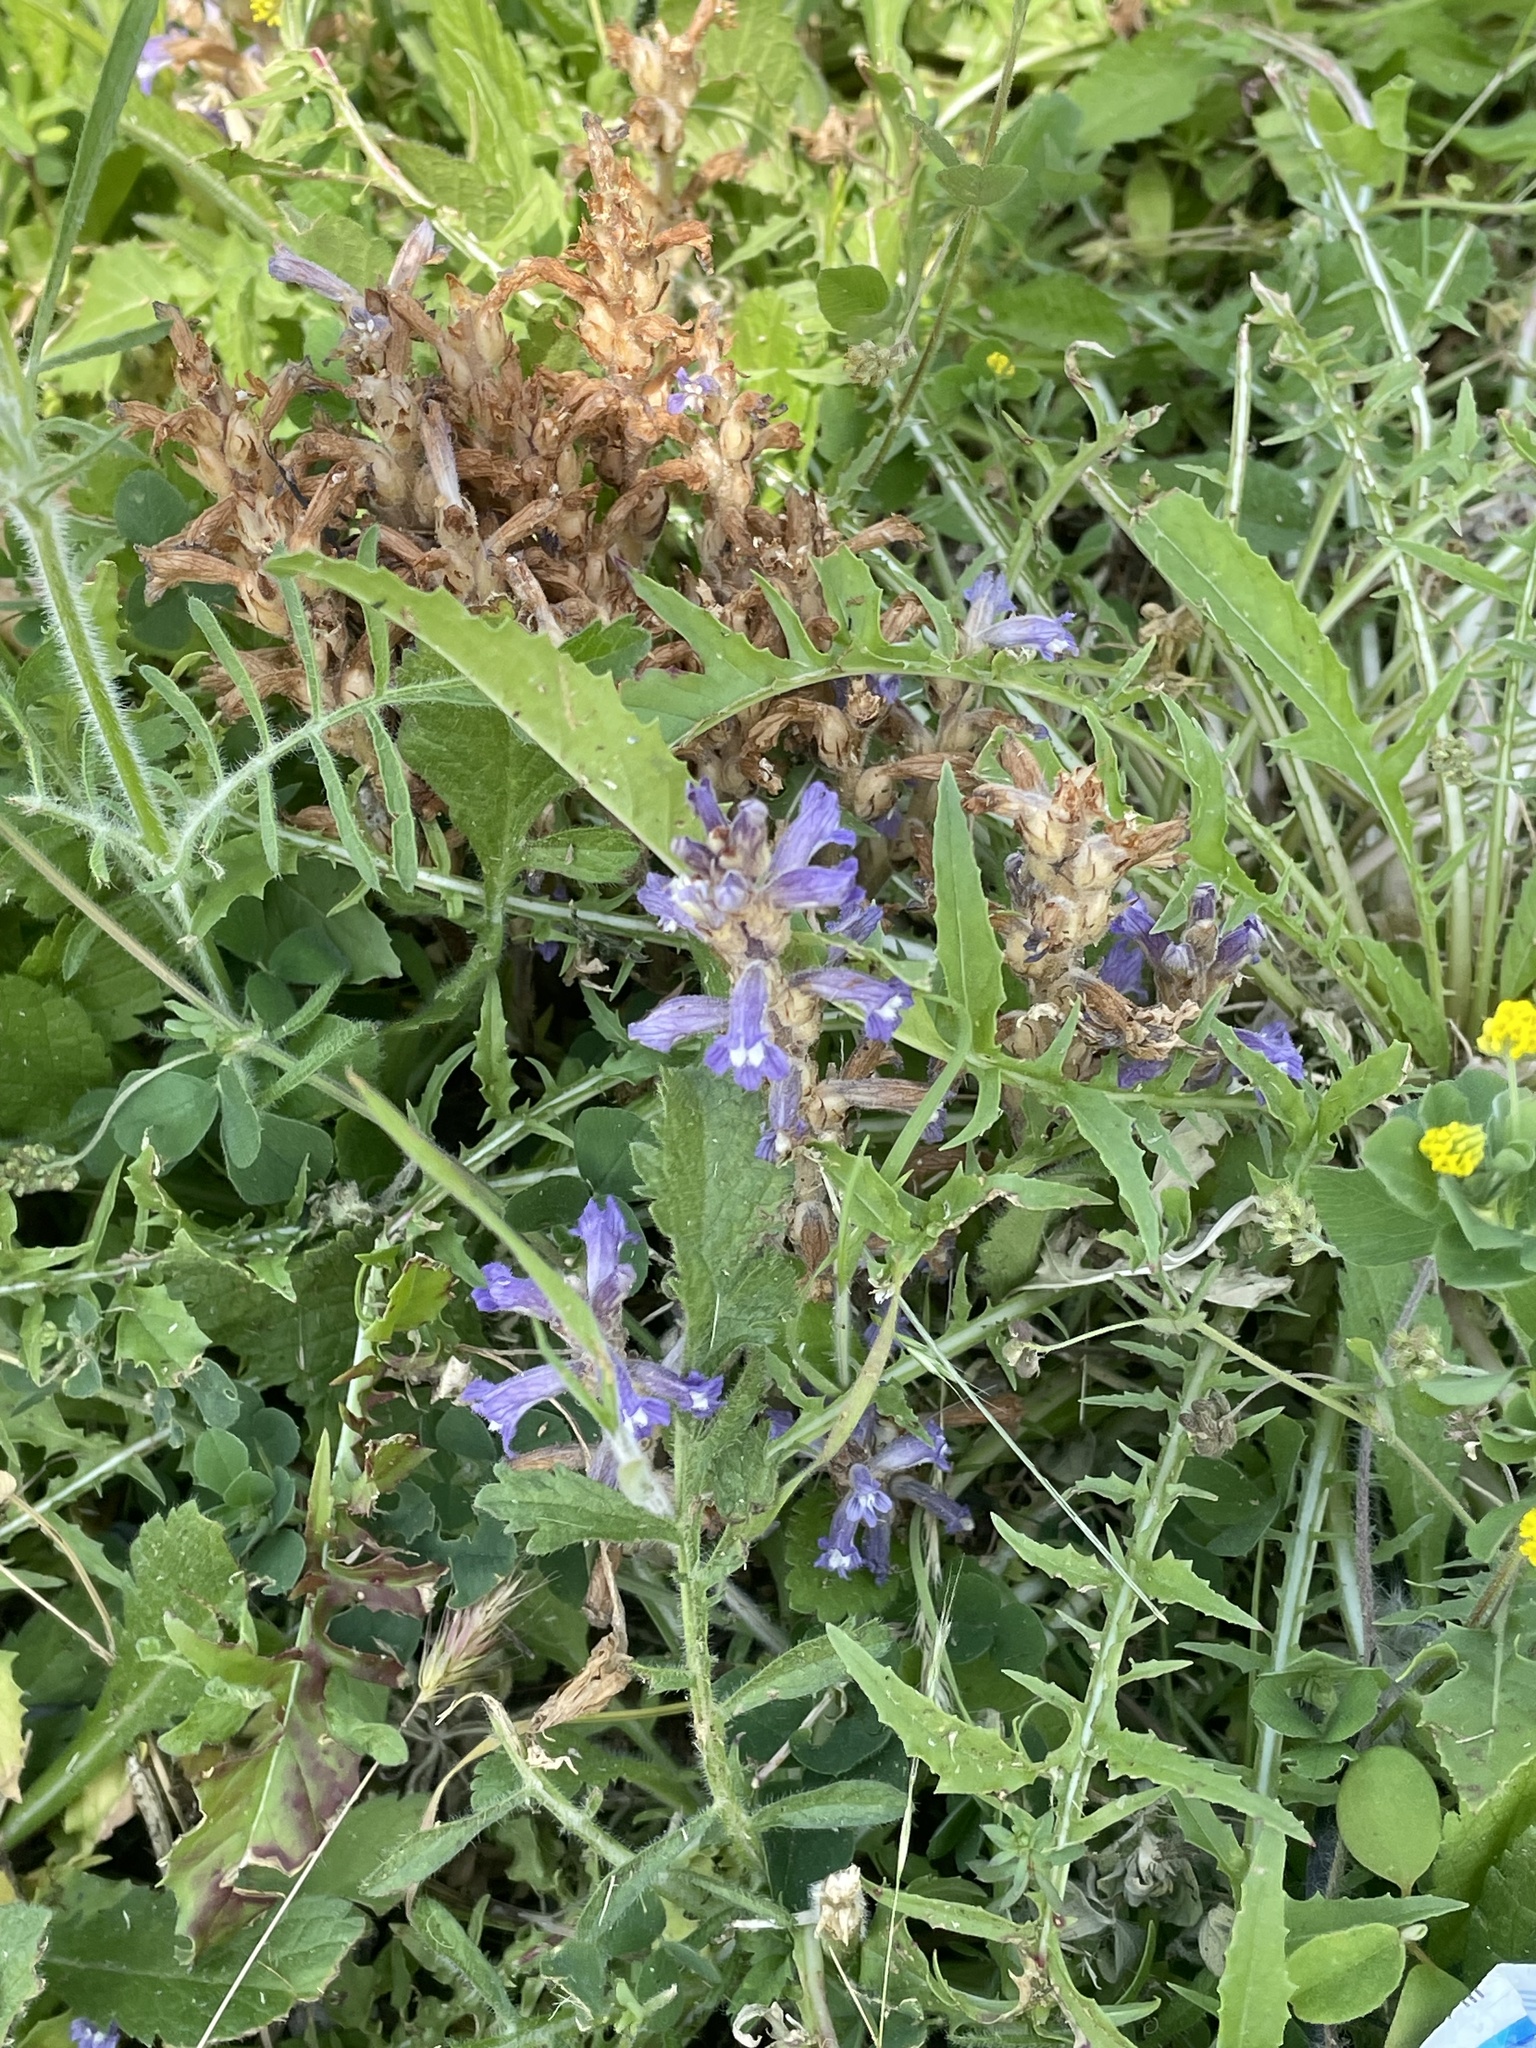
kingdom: Plantae
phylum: Tracheophyta
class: Magnoliopsida
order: Lamiales
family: Orobanchaceae
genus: Phelipanche
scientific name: Phelipanche mutelii
